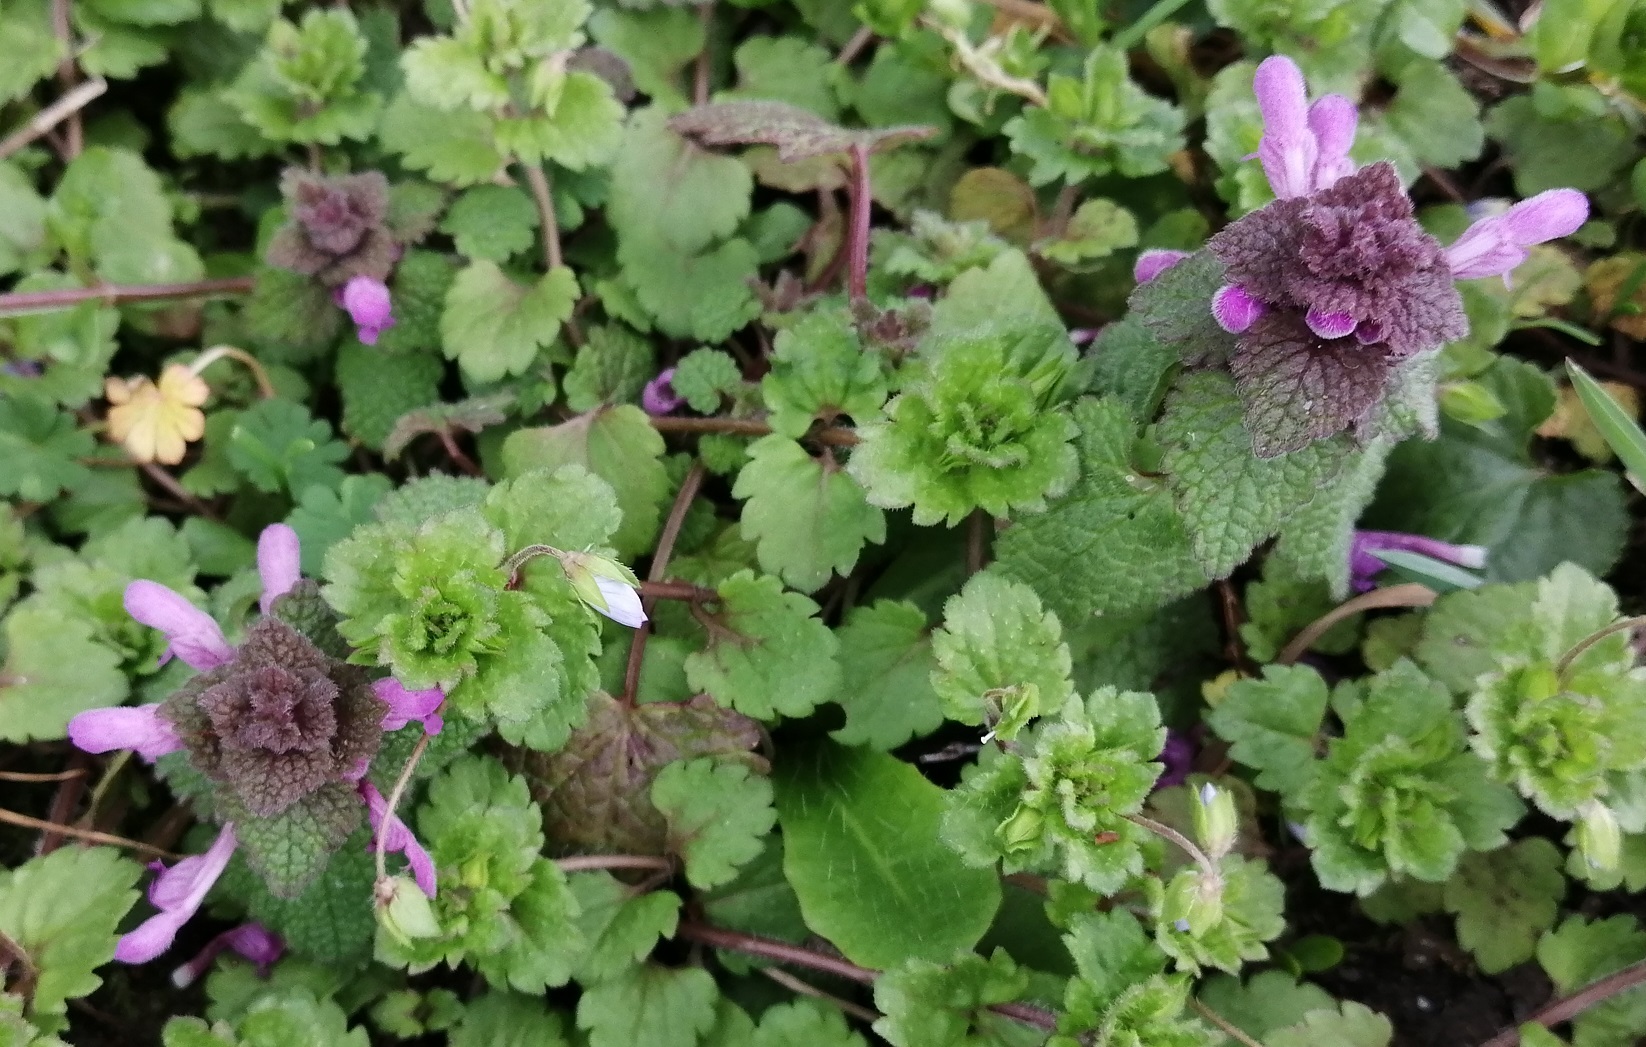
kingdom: Plantae
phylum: Tracheophyta
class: Magnoliopsida
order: Lamiales
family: Lamiaceae
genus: Lamium
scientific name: Lamium purpureum
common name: Red dead-nettle
